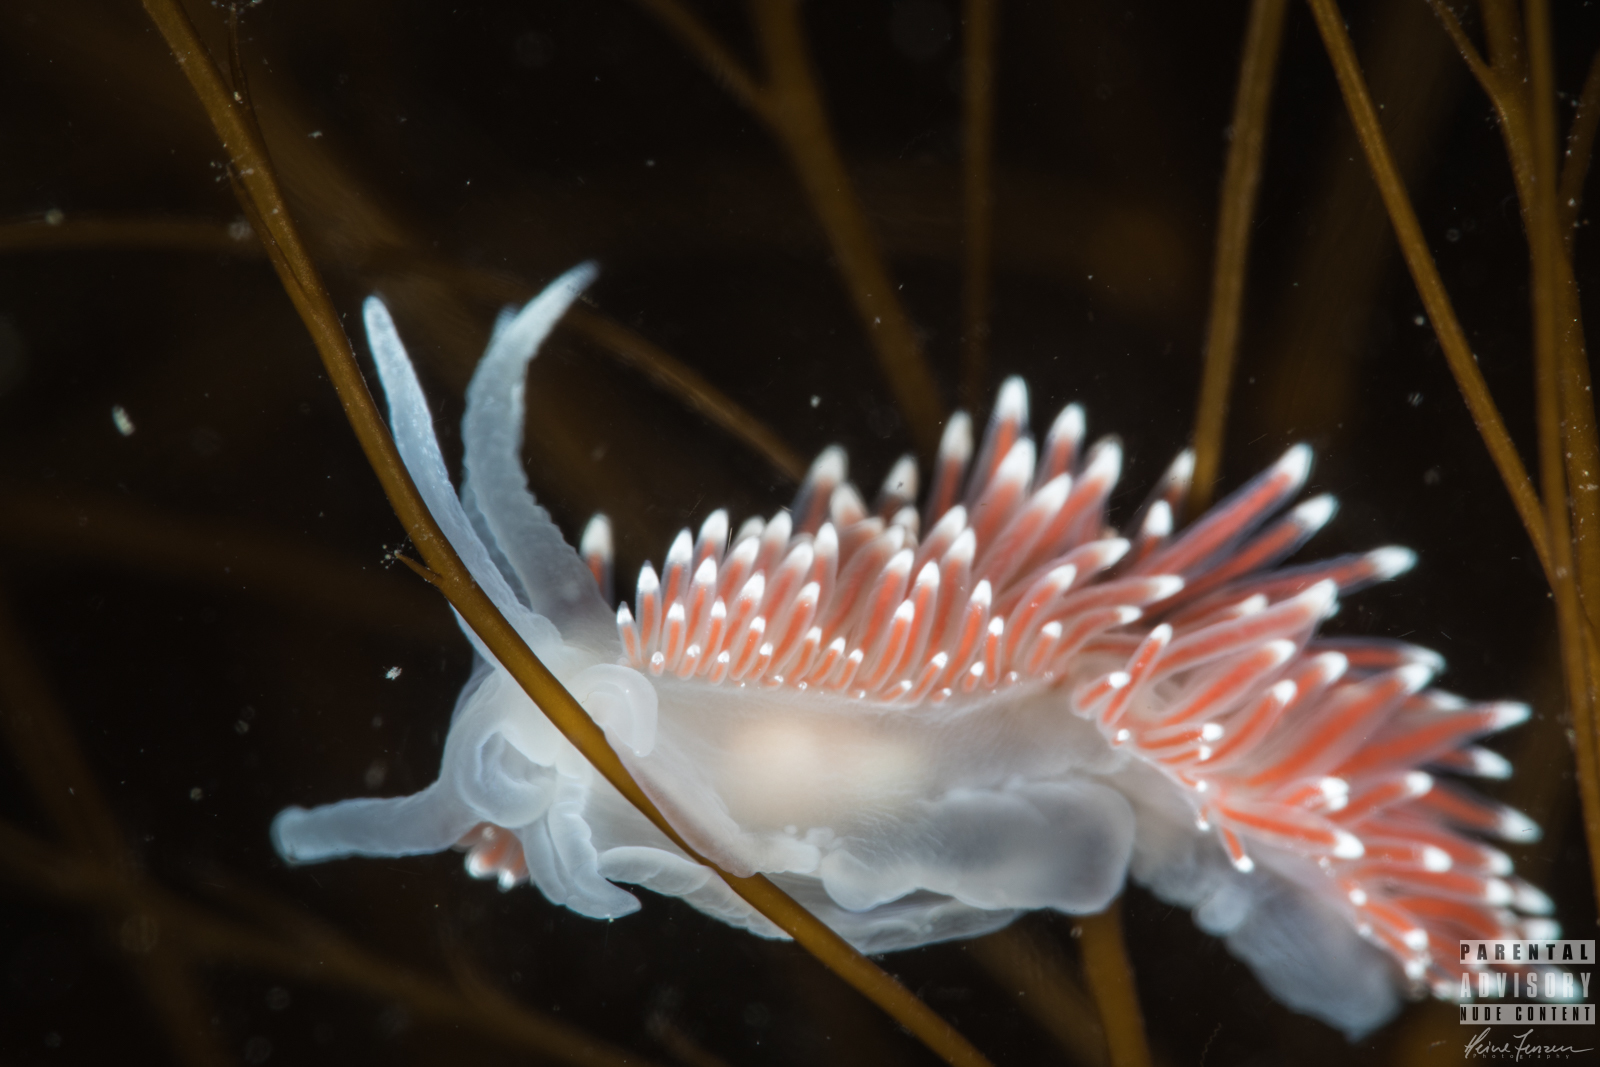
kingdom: Animalia
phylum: Mollusca
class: Gastropoda
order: Nudibranchia
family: Coryphellidae
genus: Coryphella
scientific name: Coryphella browni
